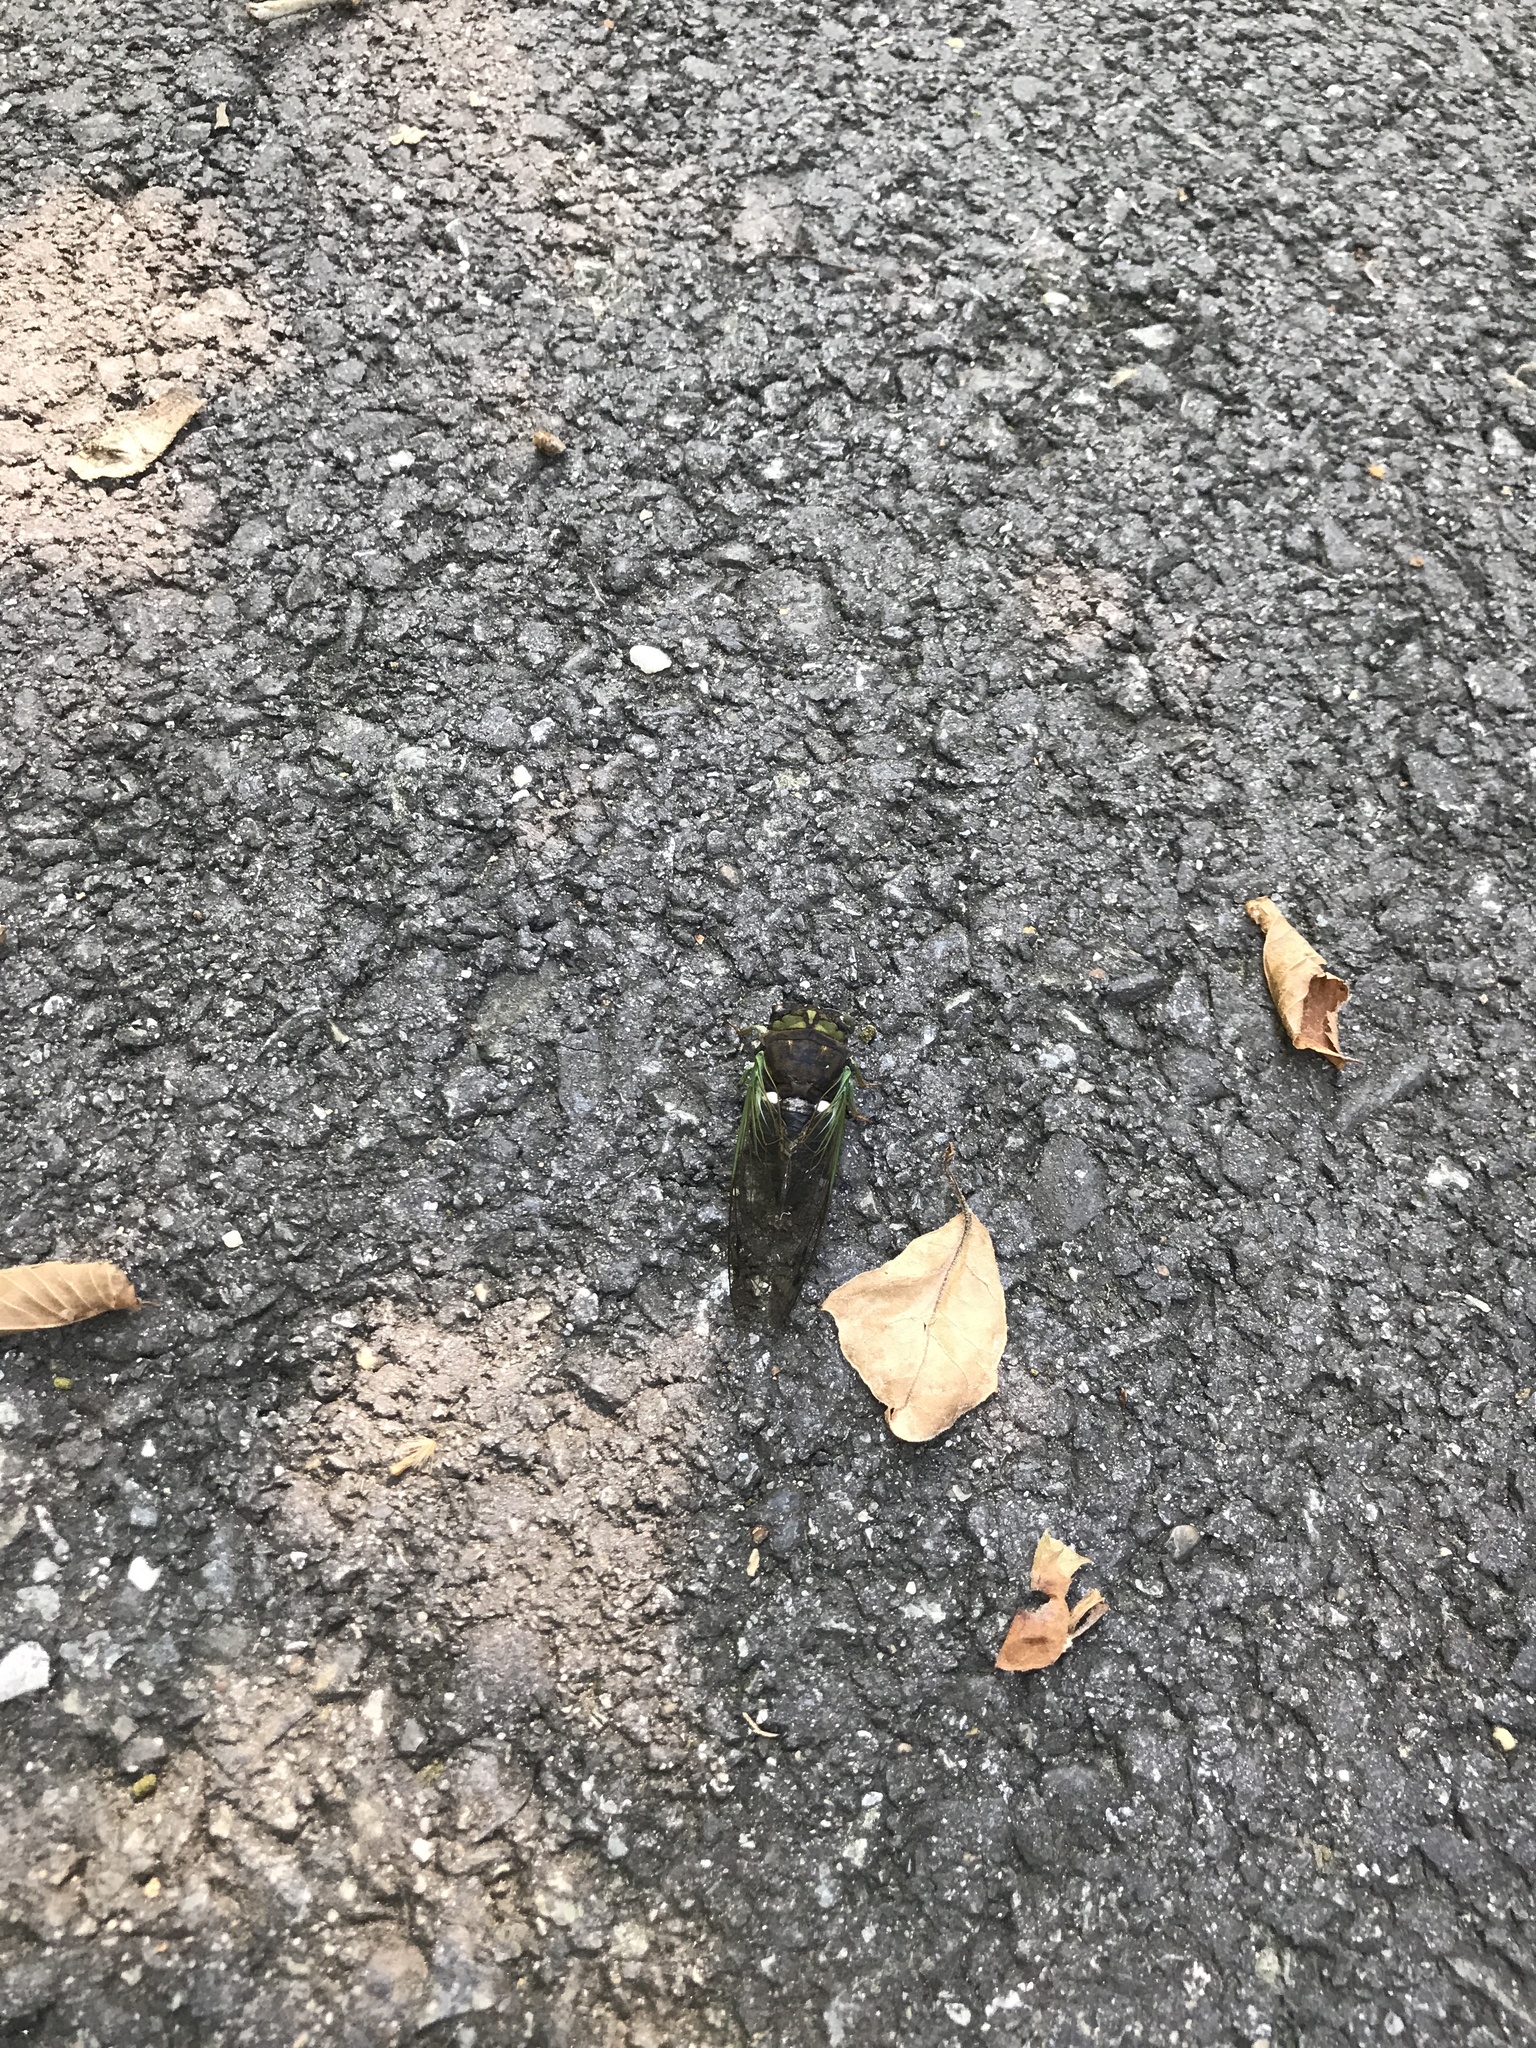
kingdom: Animalia
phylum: Arthropoda
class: Insecta
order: Hemiptera
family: Cicadidae
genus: Neotibicen
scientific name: Neotibicen tibicen
